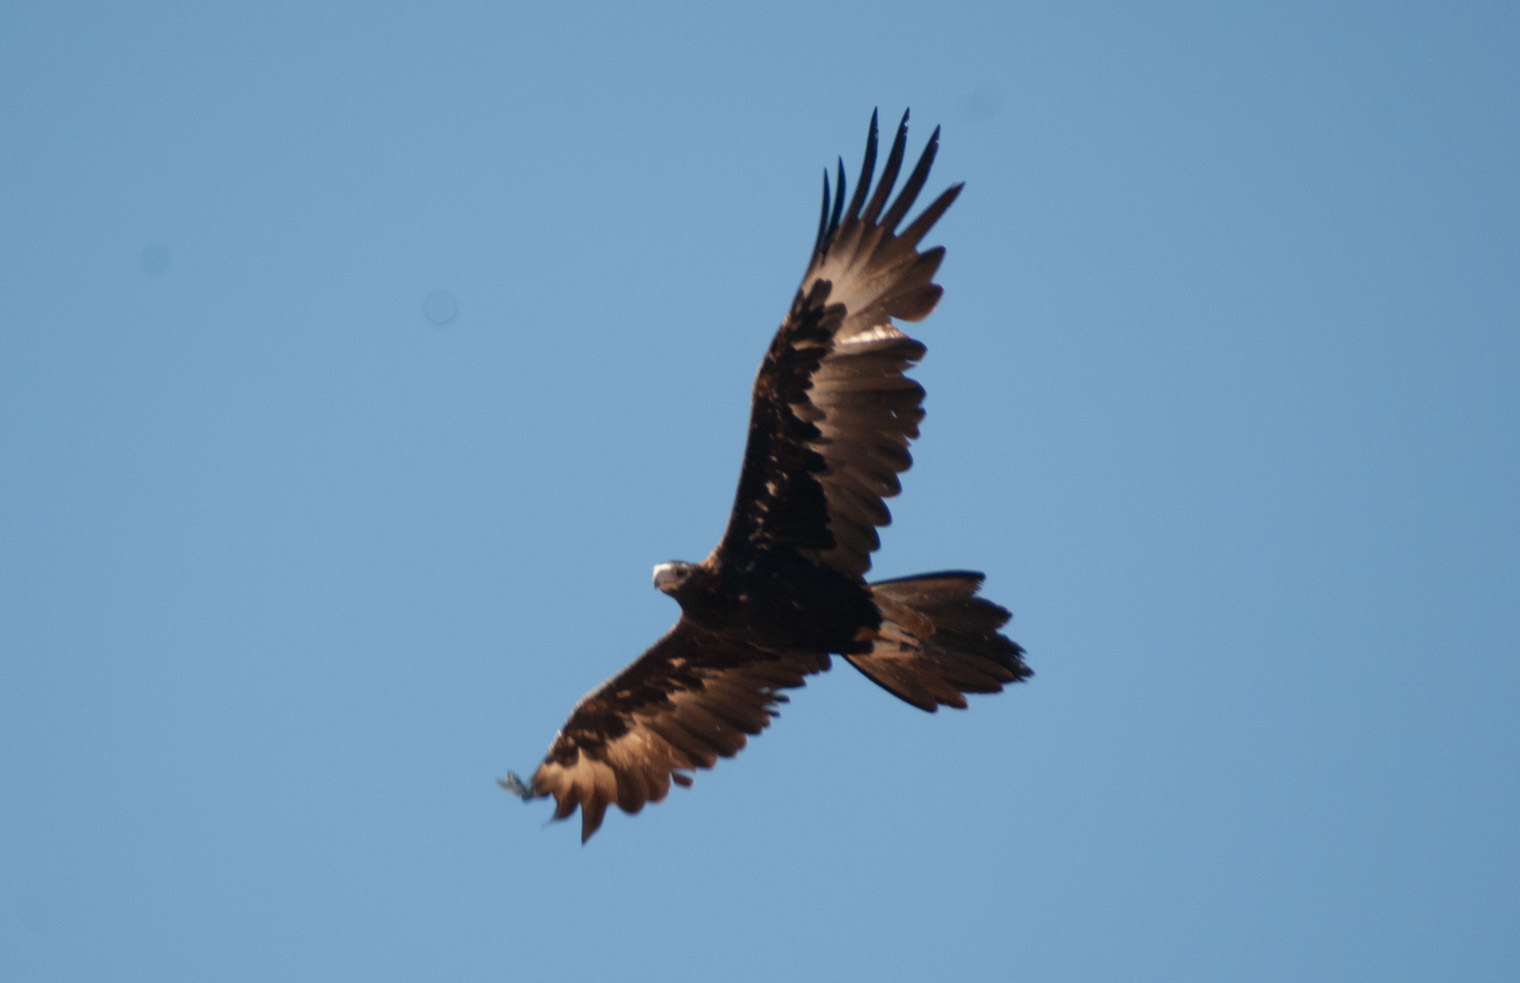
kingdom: Animalia
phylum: Chordata
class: Aves
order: Accipitriformes
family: Accipitridae
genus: Aquila
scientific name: Aquila audax
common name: Wedge-tailed eagle
